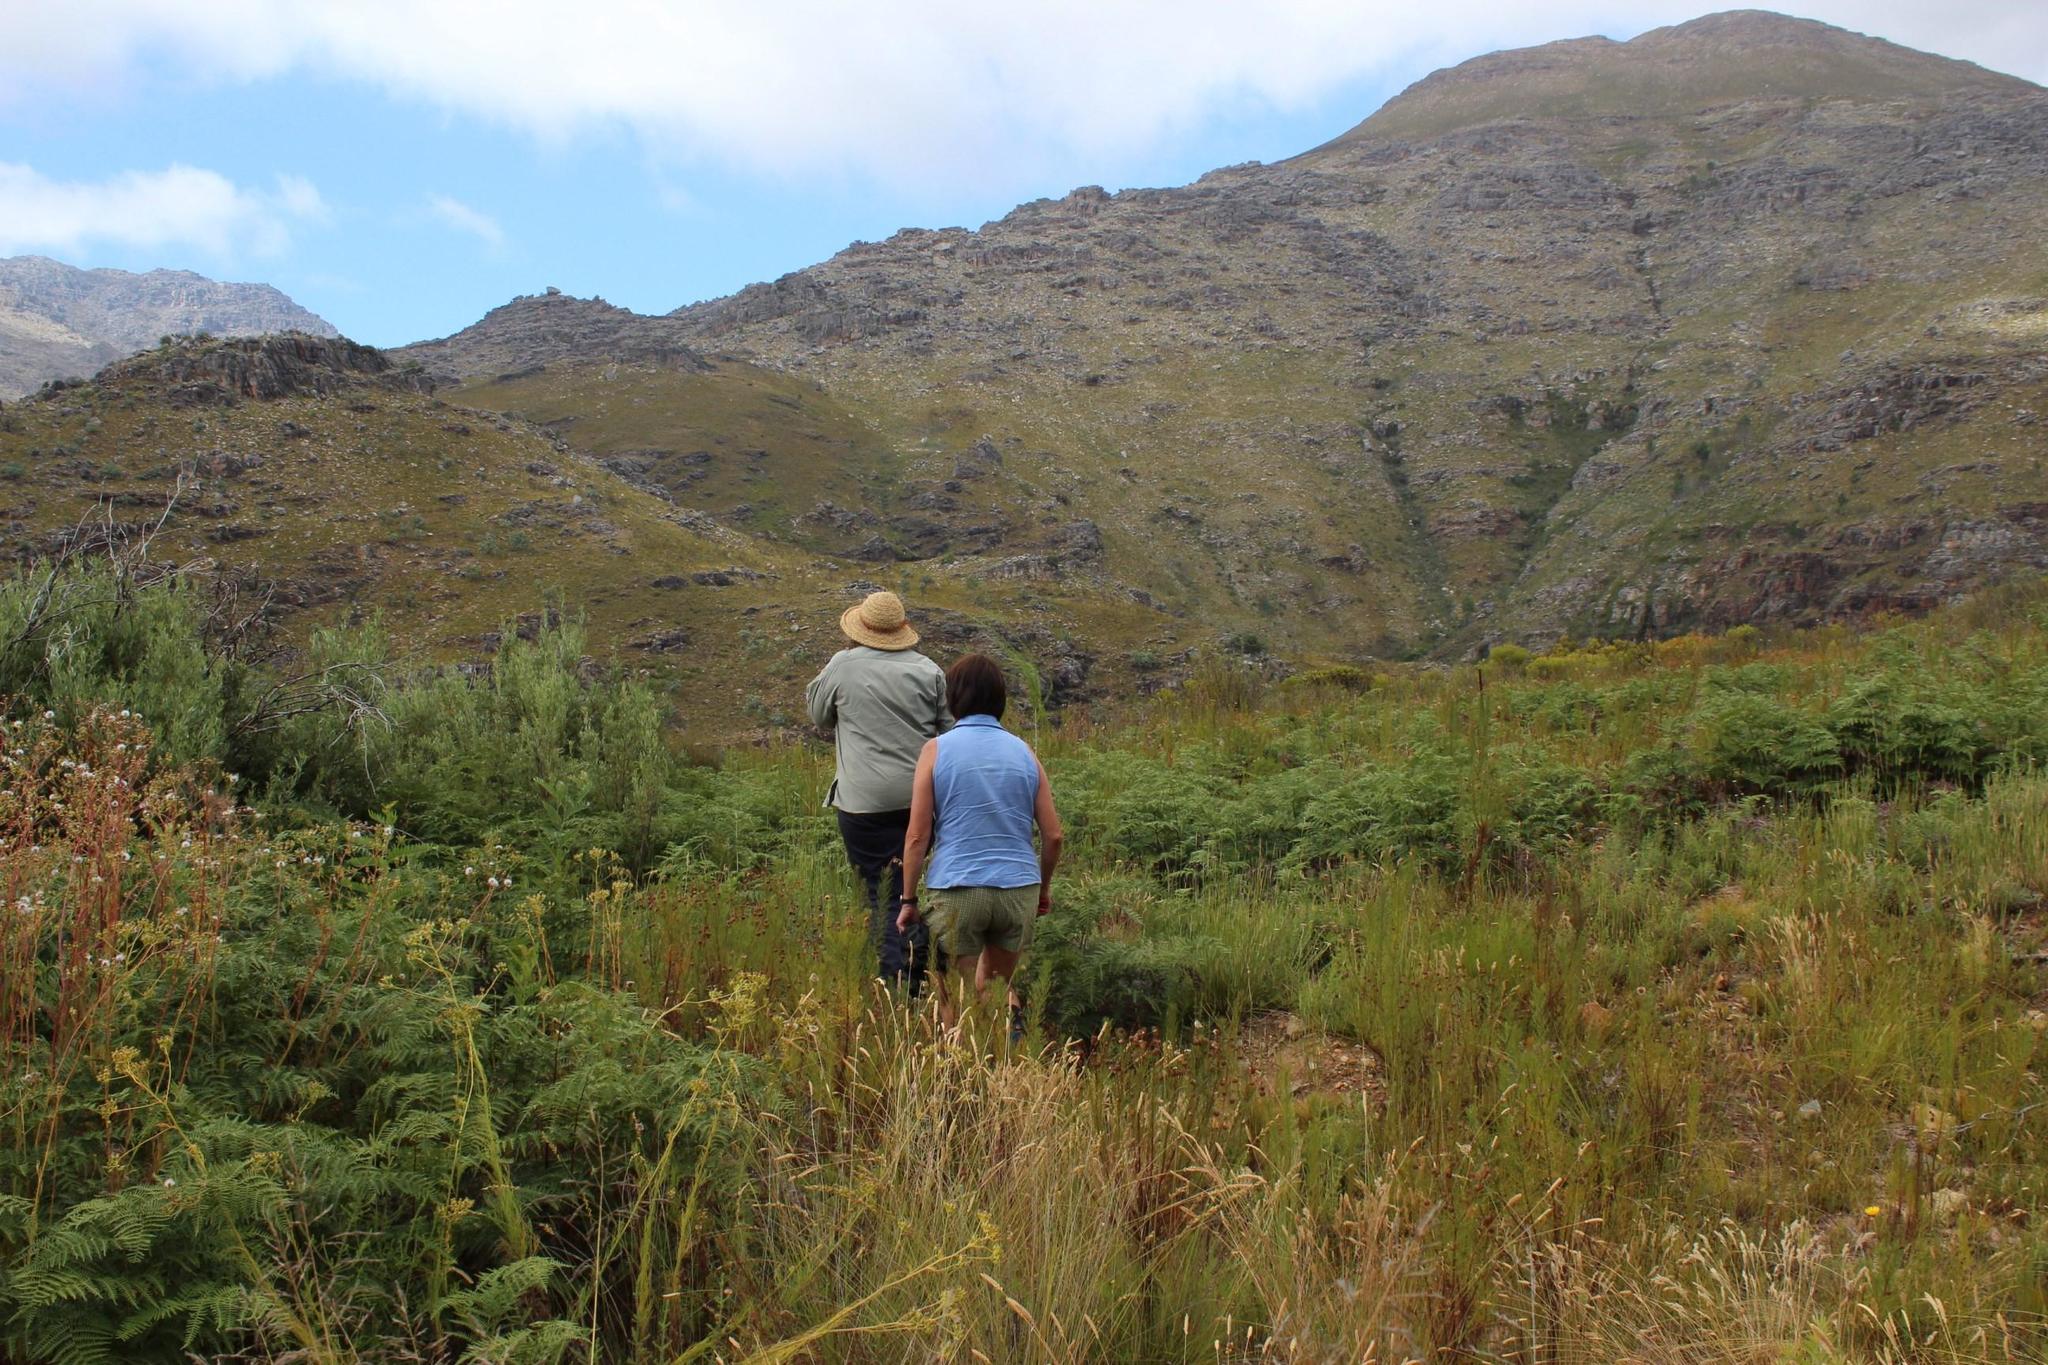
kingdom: Plantae
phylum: Tracheophyta
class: Polypodiopsida
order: Polypodiales
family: Dennstaedtiaceae
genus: Pteridium
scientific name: Pteridium aquilinum
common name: Bracken
